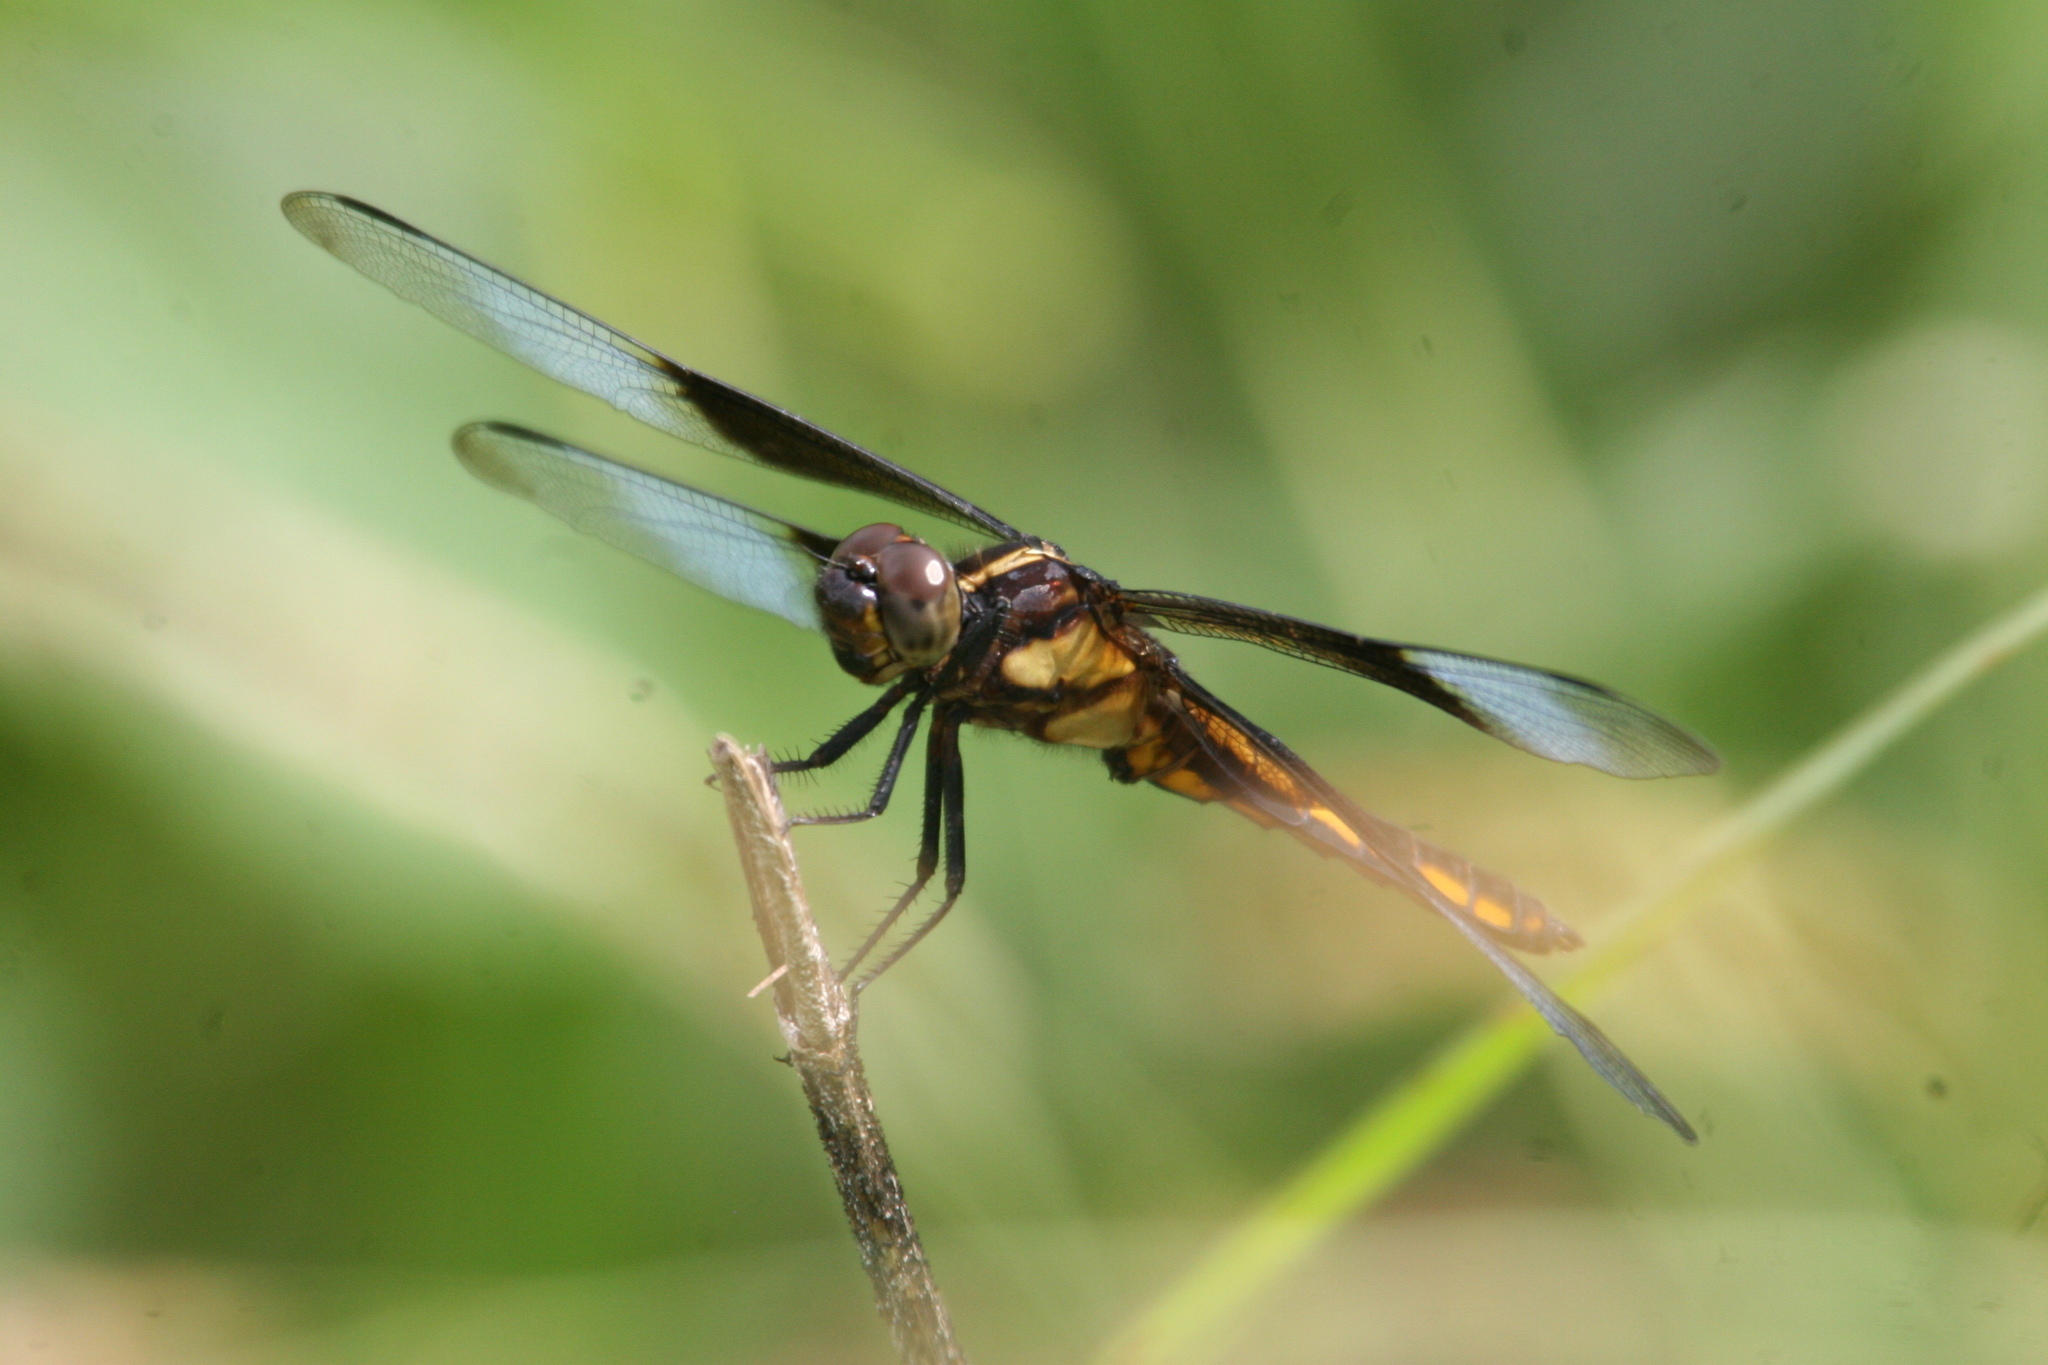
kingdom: Animalia
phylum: Arthropoda
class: Insecta
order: Odonata
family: Libellulidae
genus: Libellula
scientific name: Libellula luctuosa
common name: Widow skimmer
